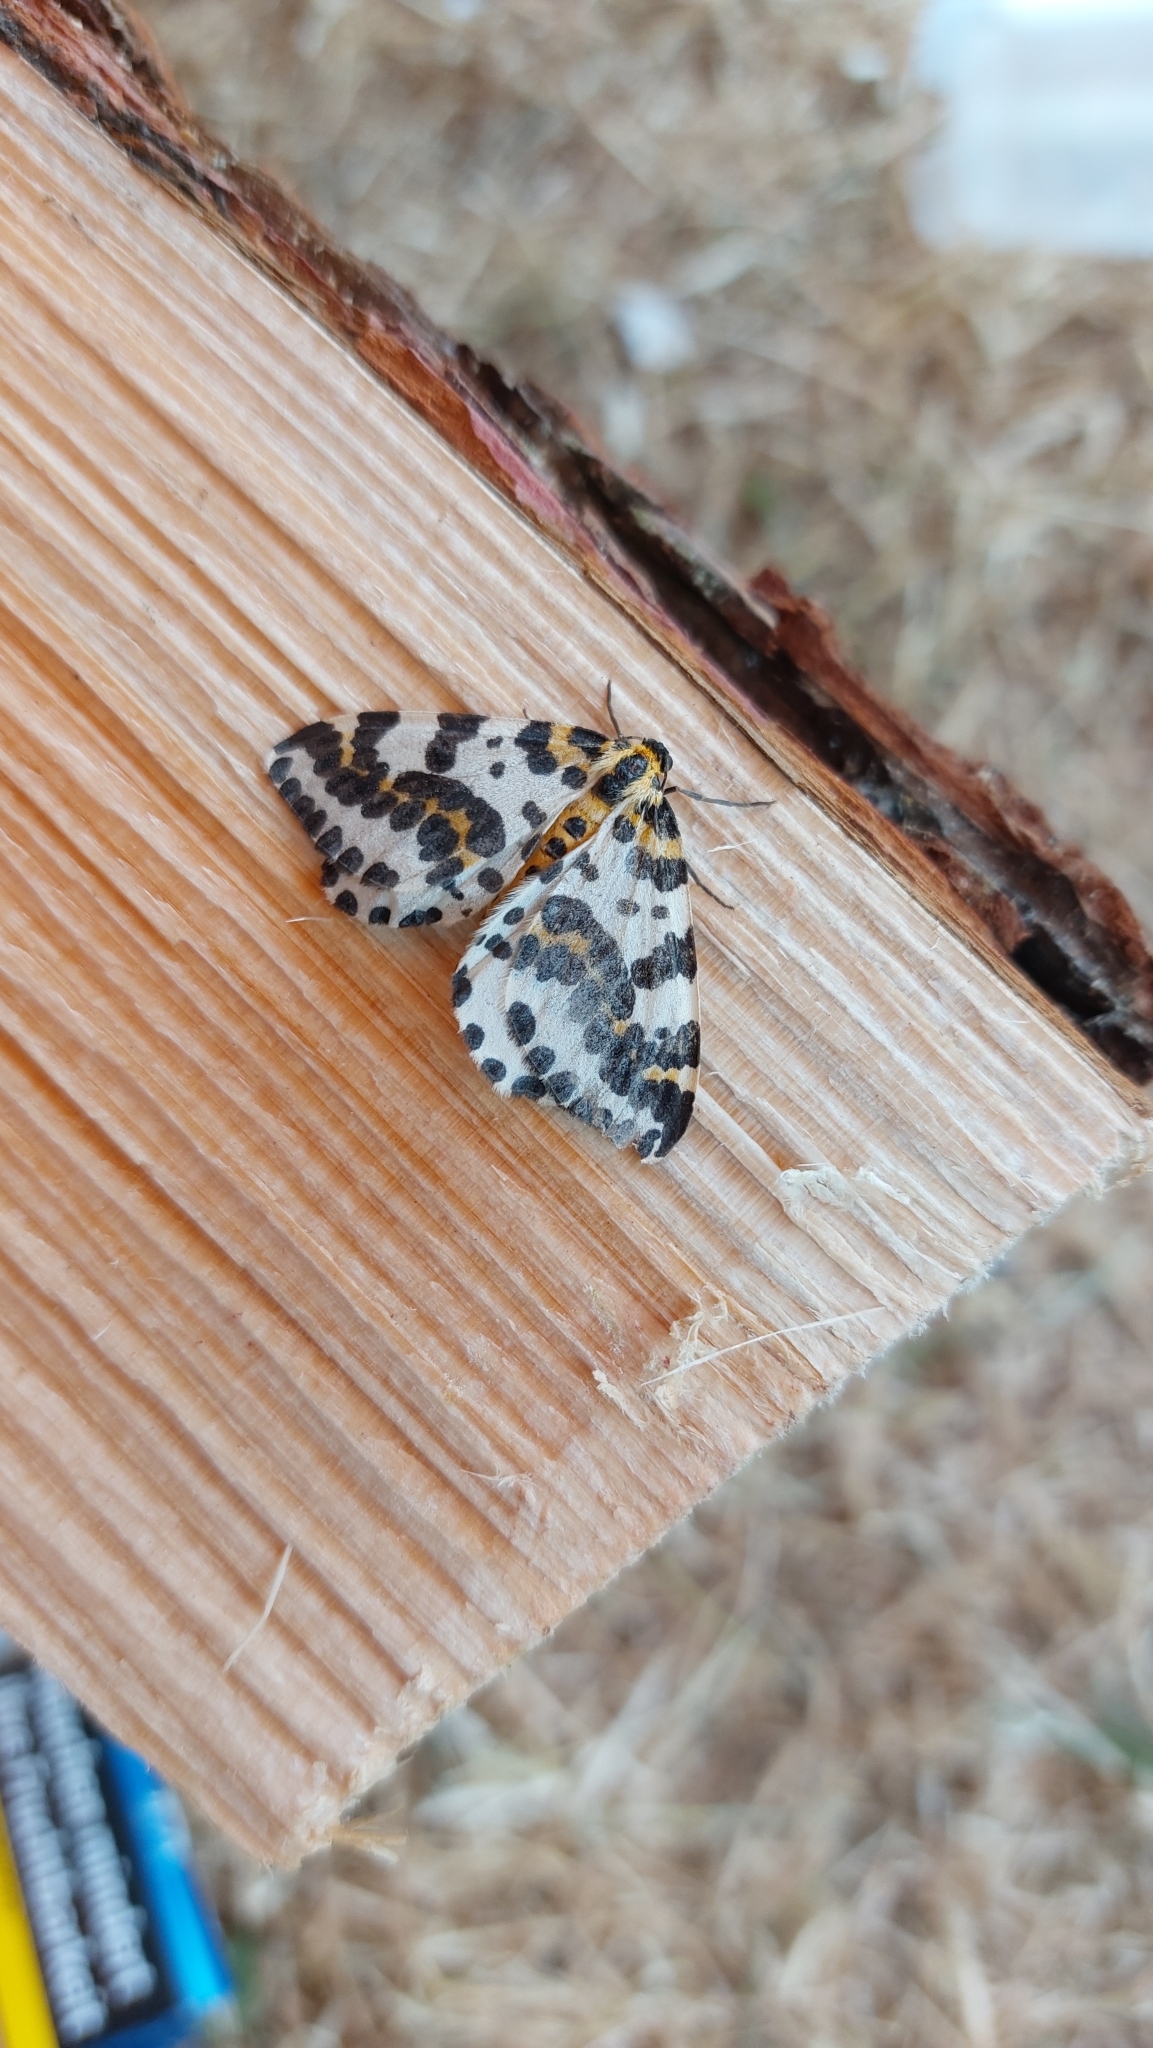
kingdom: Animalia
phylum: Arthropoda
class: Insecta
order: Lepidoptera
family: Geometridae
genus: Abraxas
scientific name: Abraxas grossulariata
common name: Magpie
